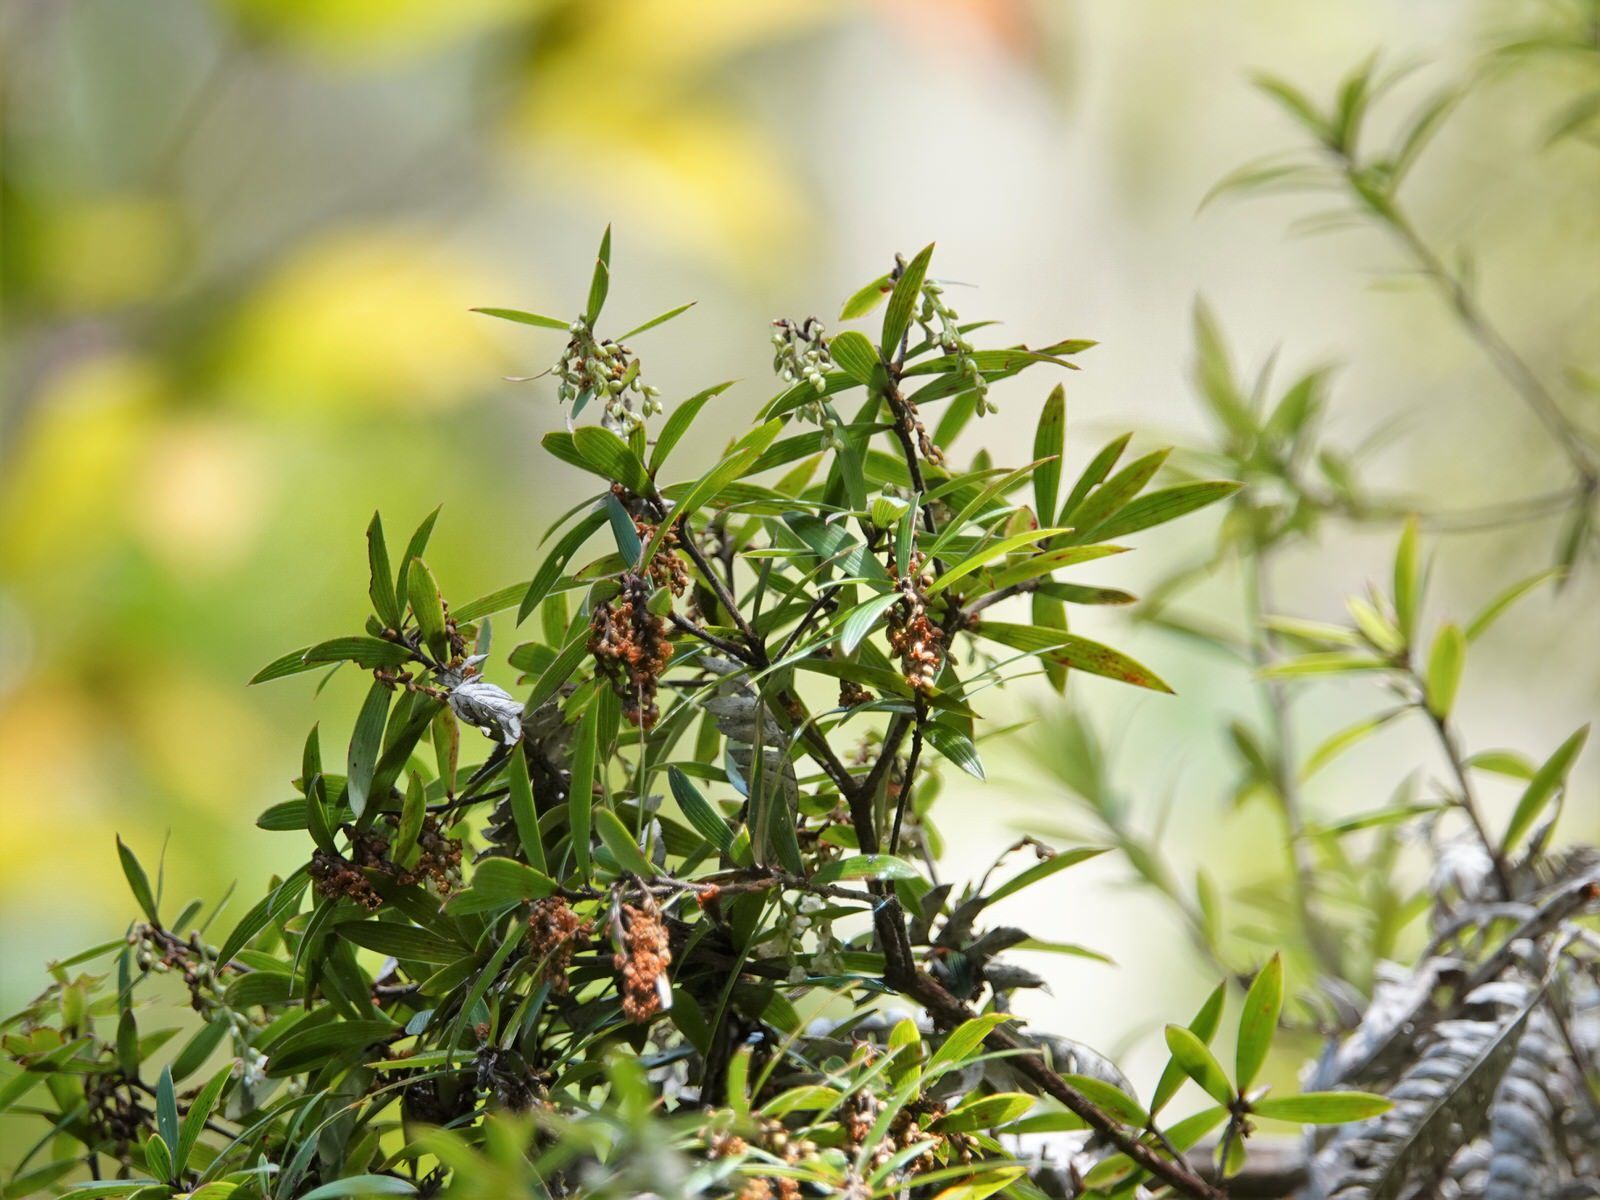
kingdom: Plantae
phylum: Tracheophyta
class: Magnoliopsida
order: Ericales
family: Ericaceae
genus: Leucopogon
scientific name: Leucopogon fasciculatus
